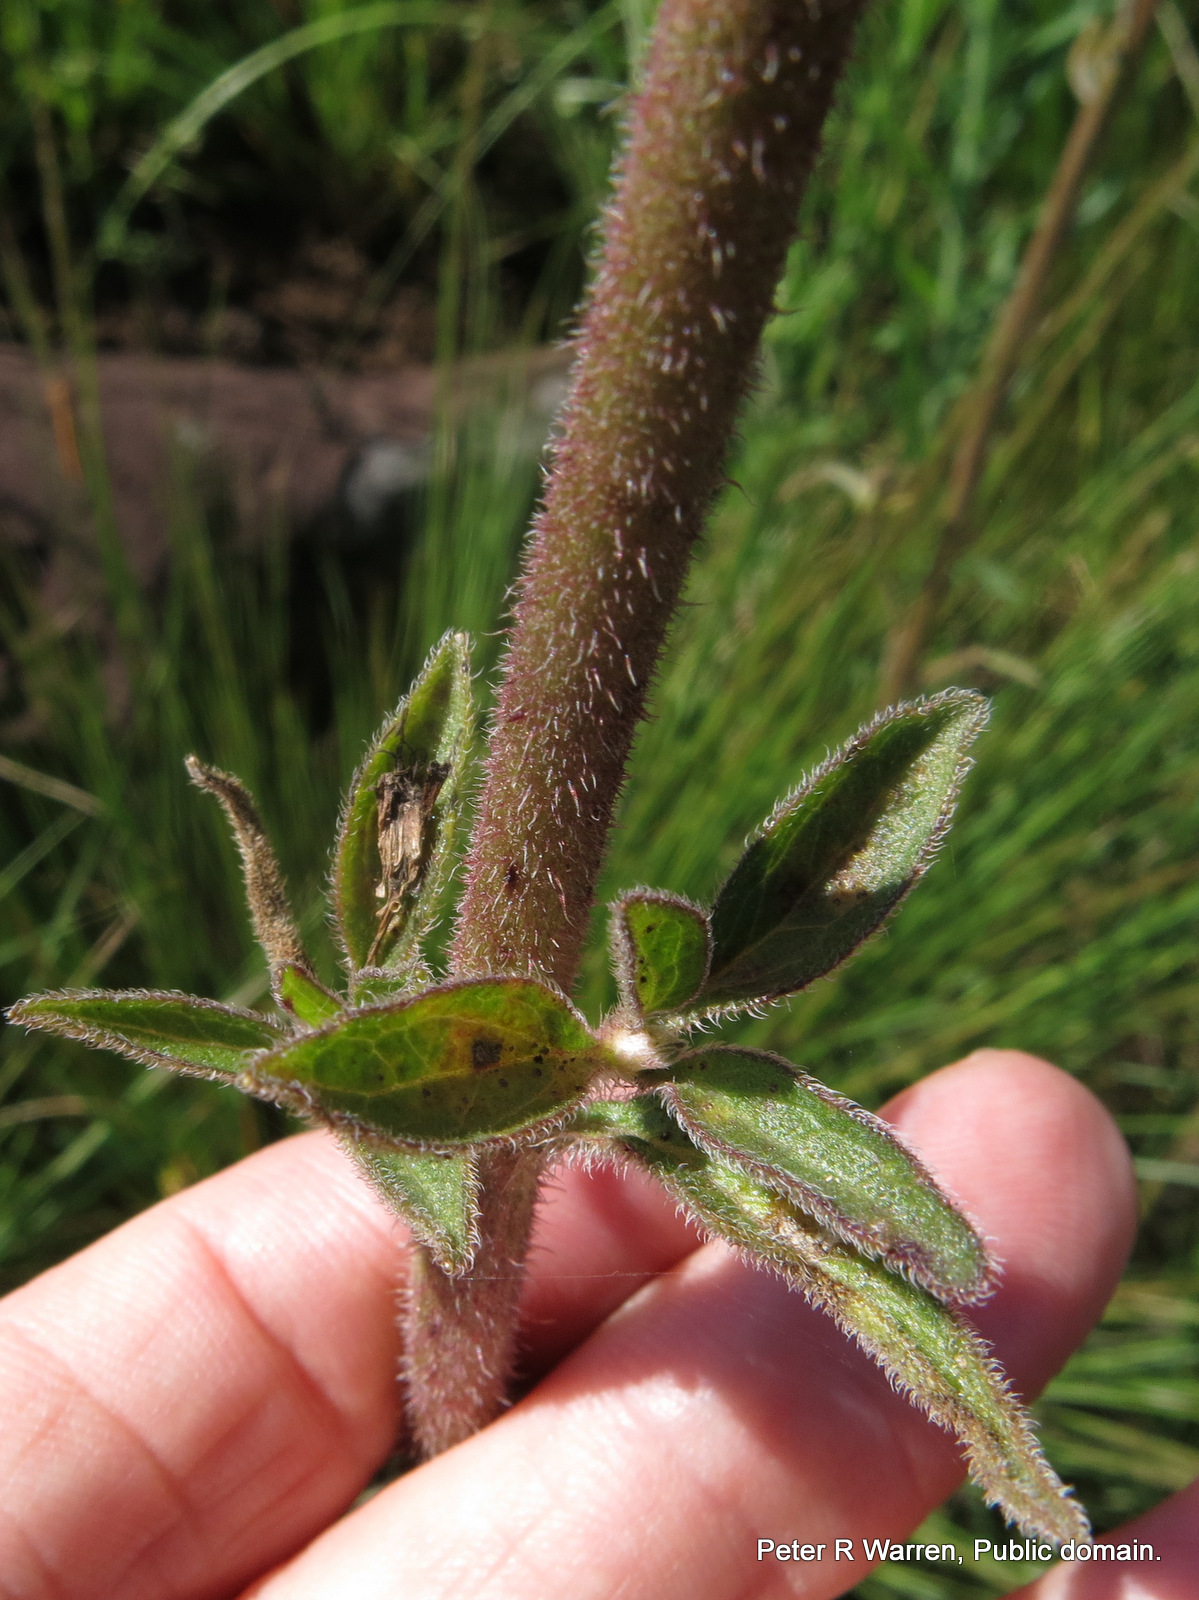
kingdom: Plantae
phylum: Tracheophyta
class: Magnoliopsida
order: Asterales
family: Asteraceae
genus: Campuloclinium
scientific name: Campuloclinium macrocephalum
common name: Pompomweed
